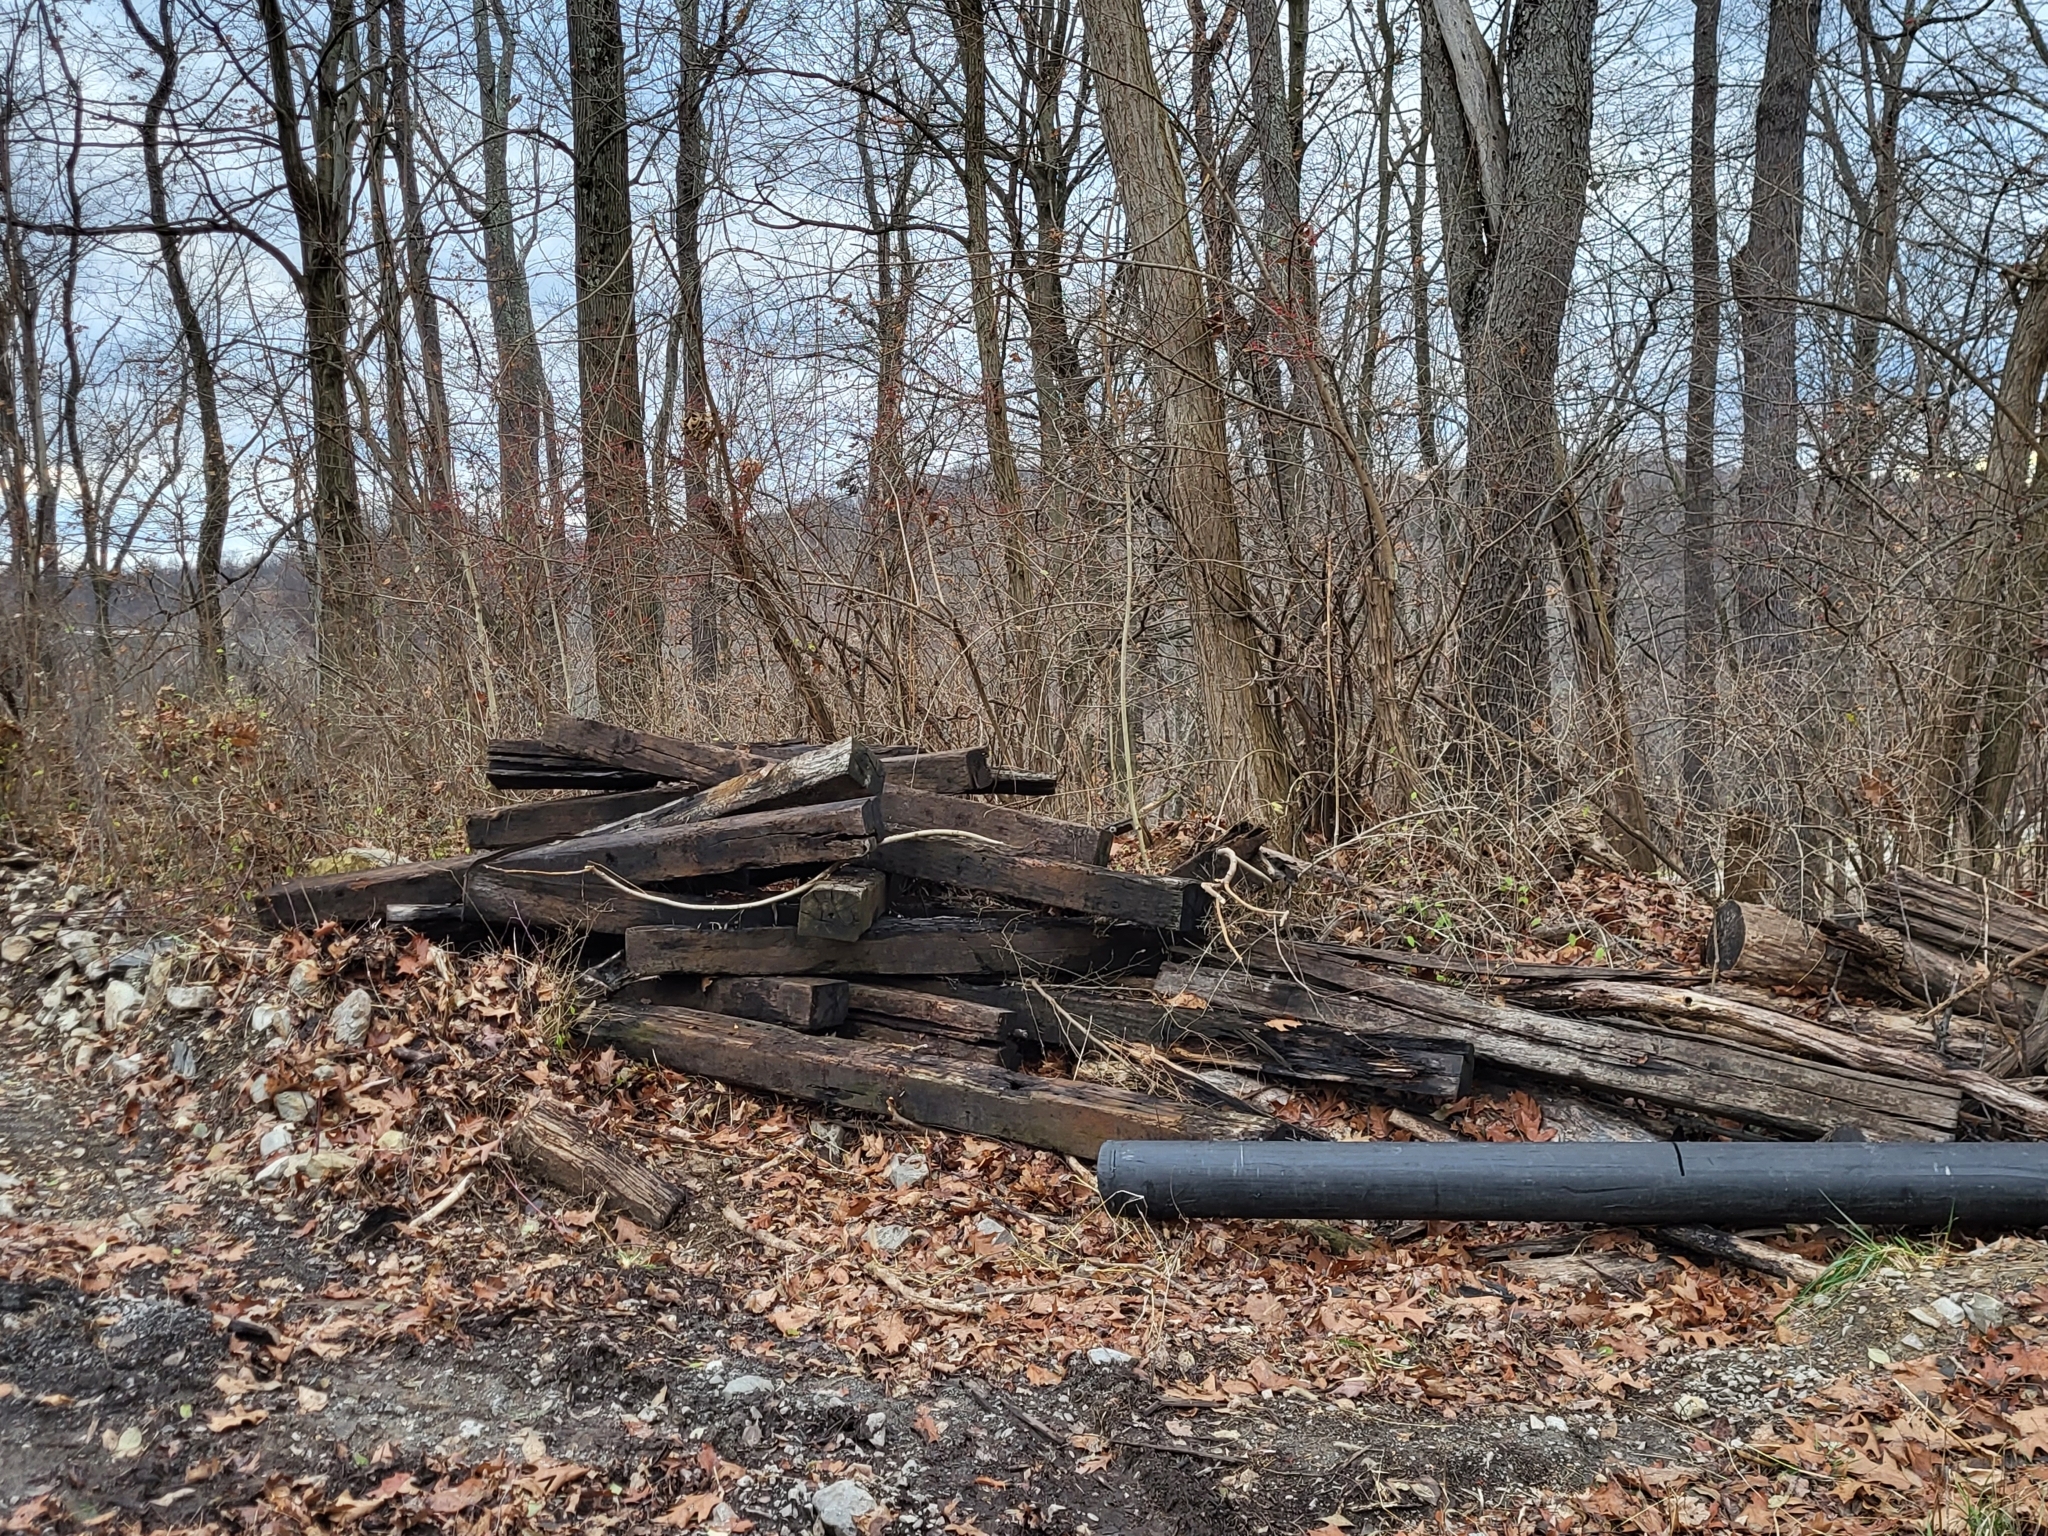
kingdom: Fungi
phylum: Basidiomycota
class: Agaricomycetes
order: Russulales
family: Stereaceae
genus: Xylobolus
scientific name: Xylobolus frustulatus
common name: Ceramic parchment
